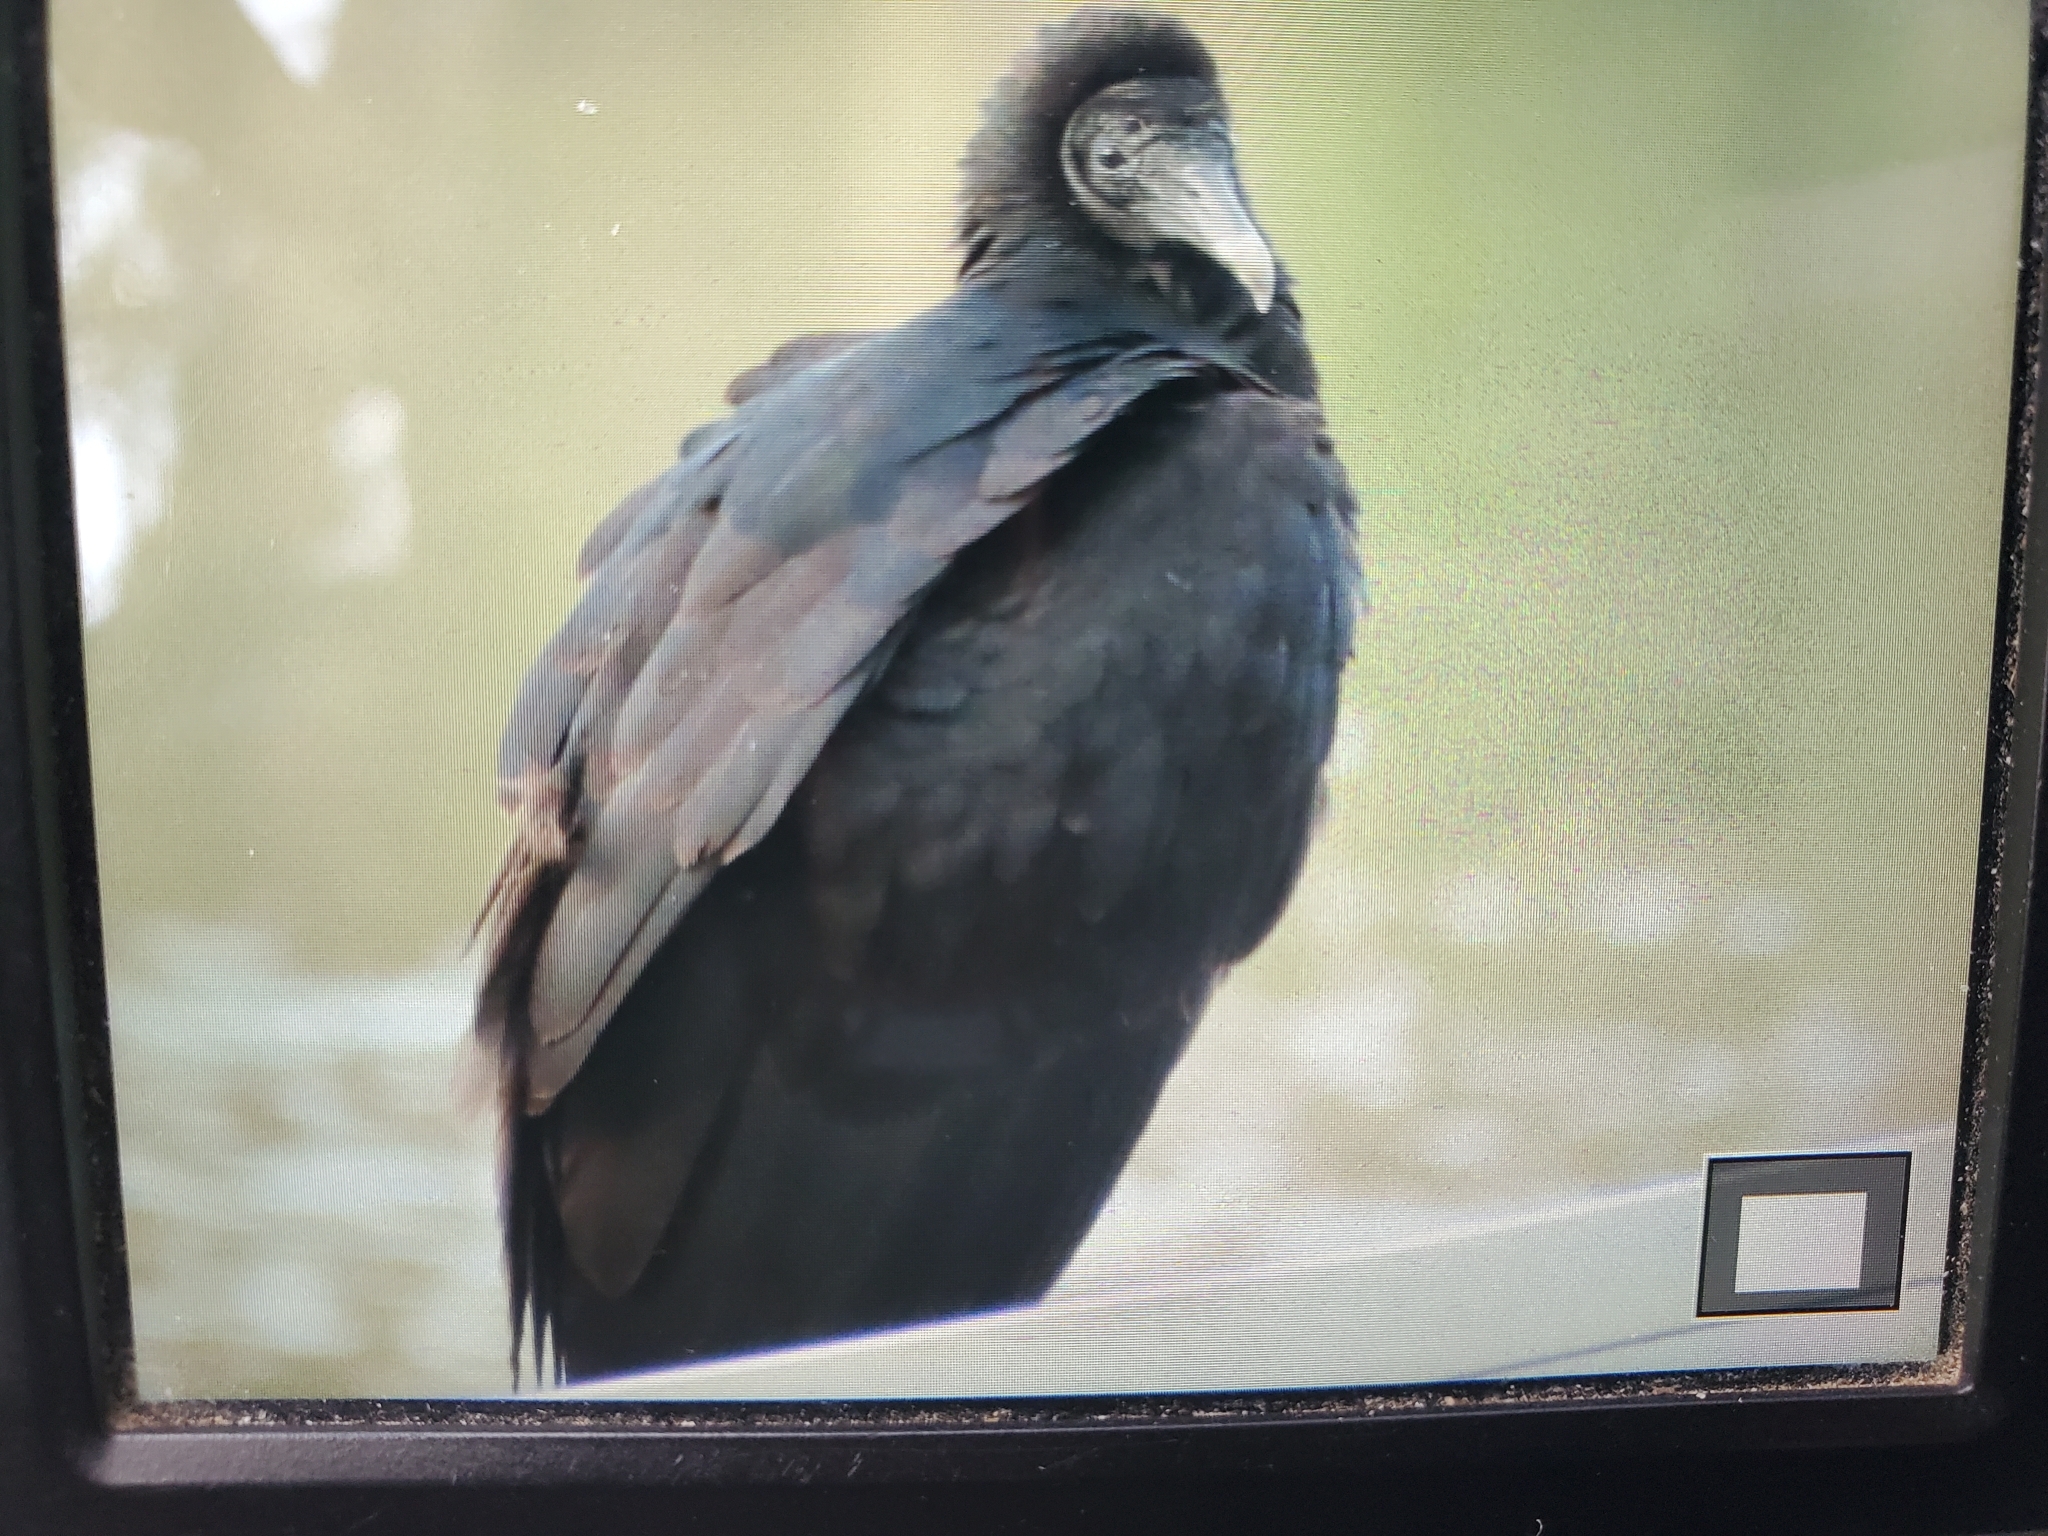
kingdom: Animalia
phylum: Chordata
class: Aves
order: Accipitriformes
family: Cathartidae
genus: Coragyps
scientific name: Coragyps atratus
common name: Black vulture
